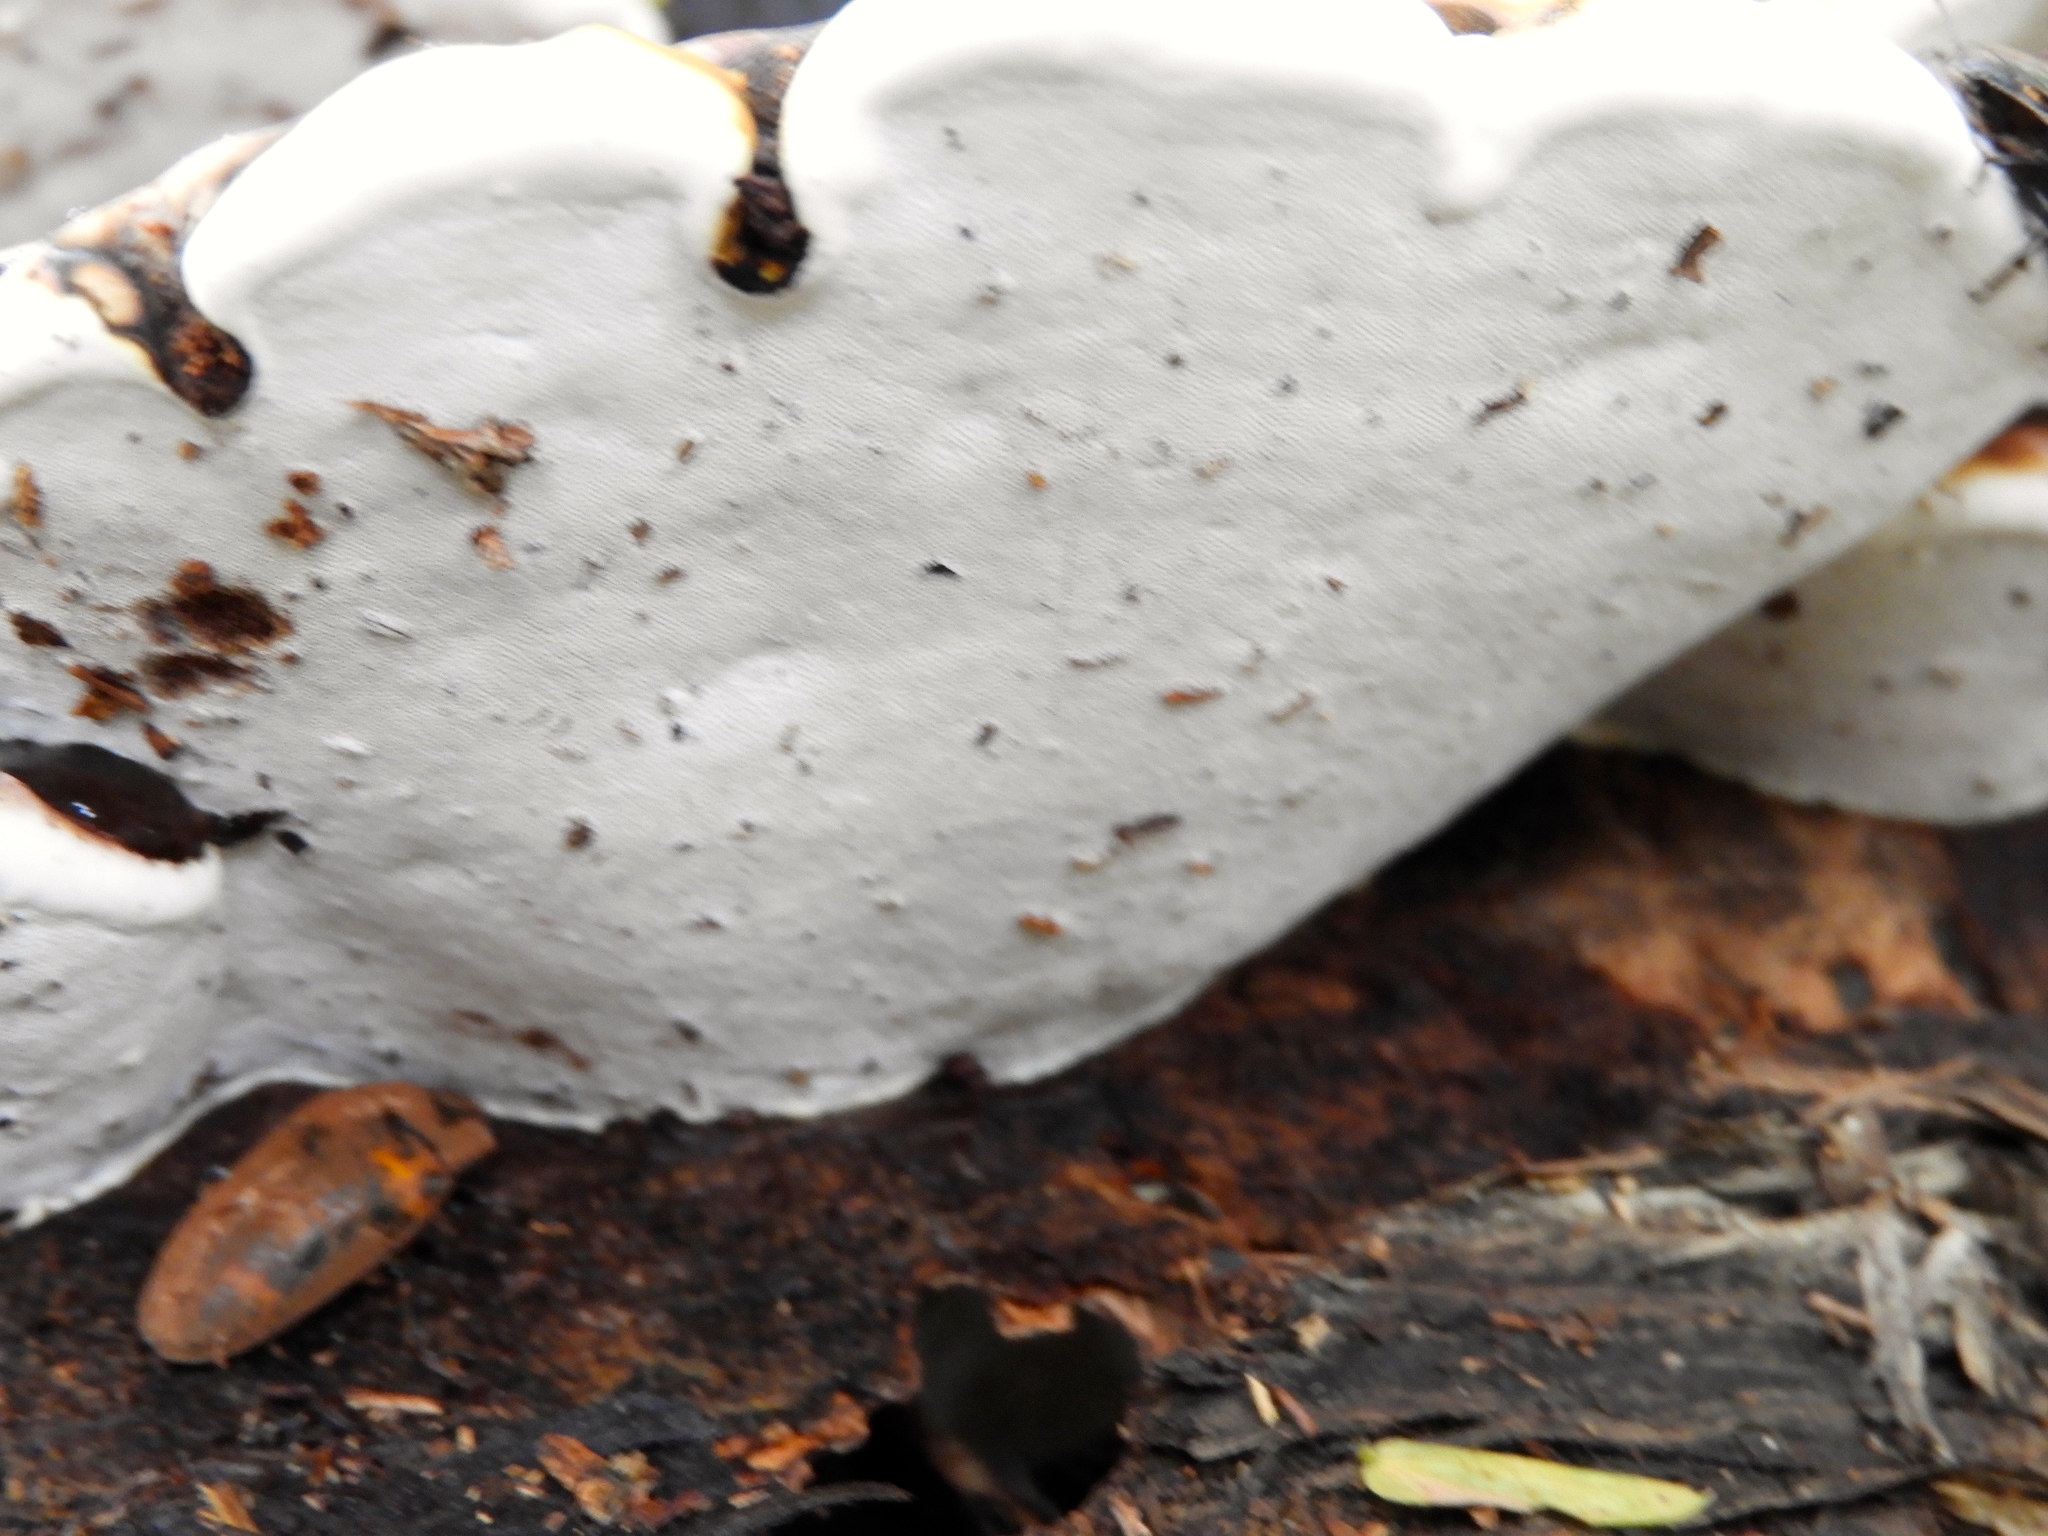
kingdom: Fungi
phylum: Basidiomycota
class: Agaricomycetes
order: Polyporales
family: Polyporaceae
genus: Ganoderma
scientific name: Ganoderma
